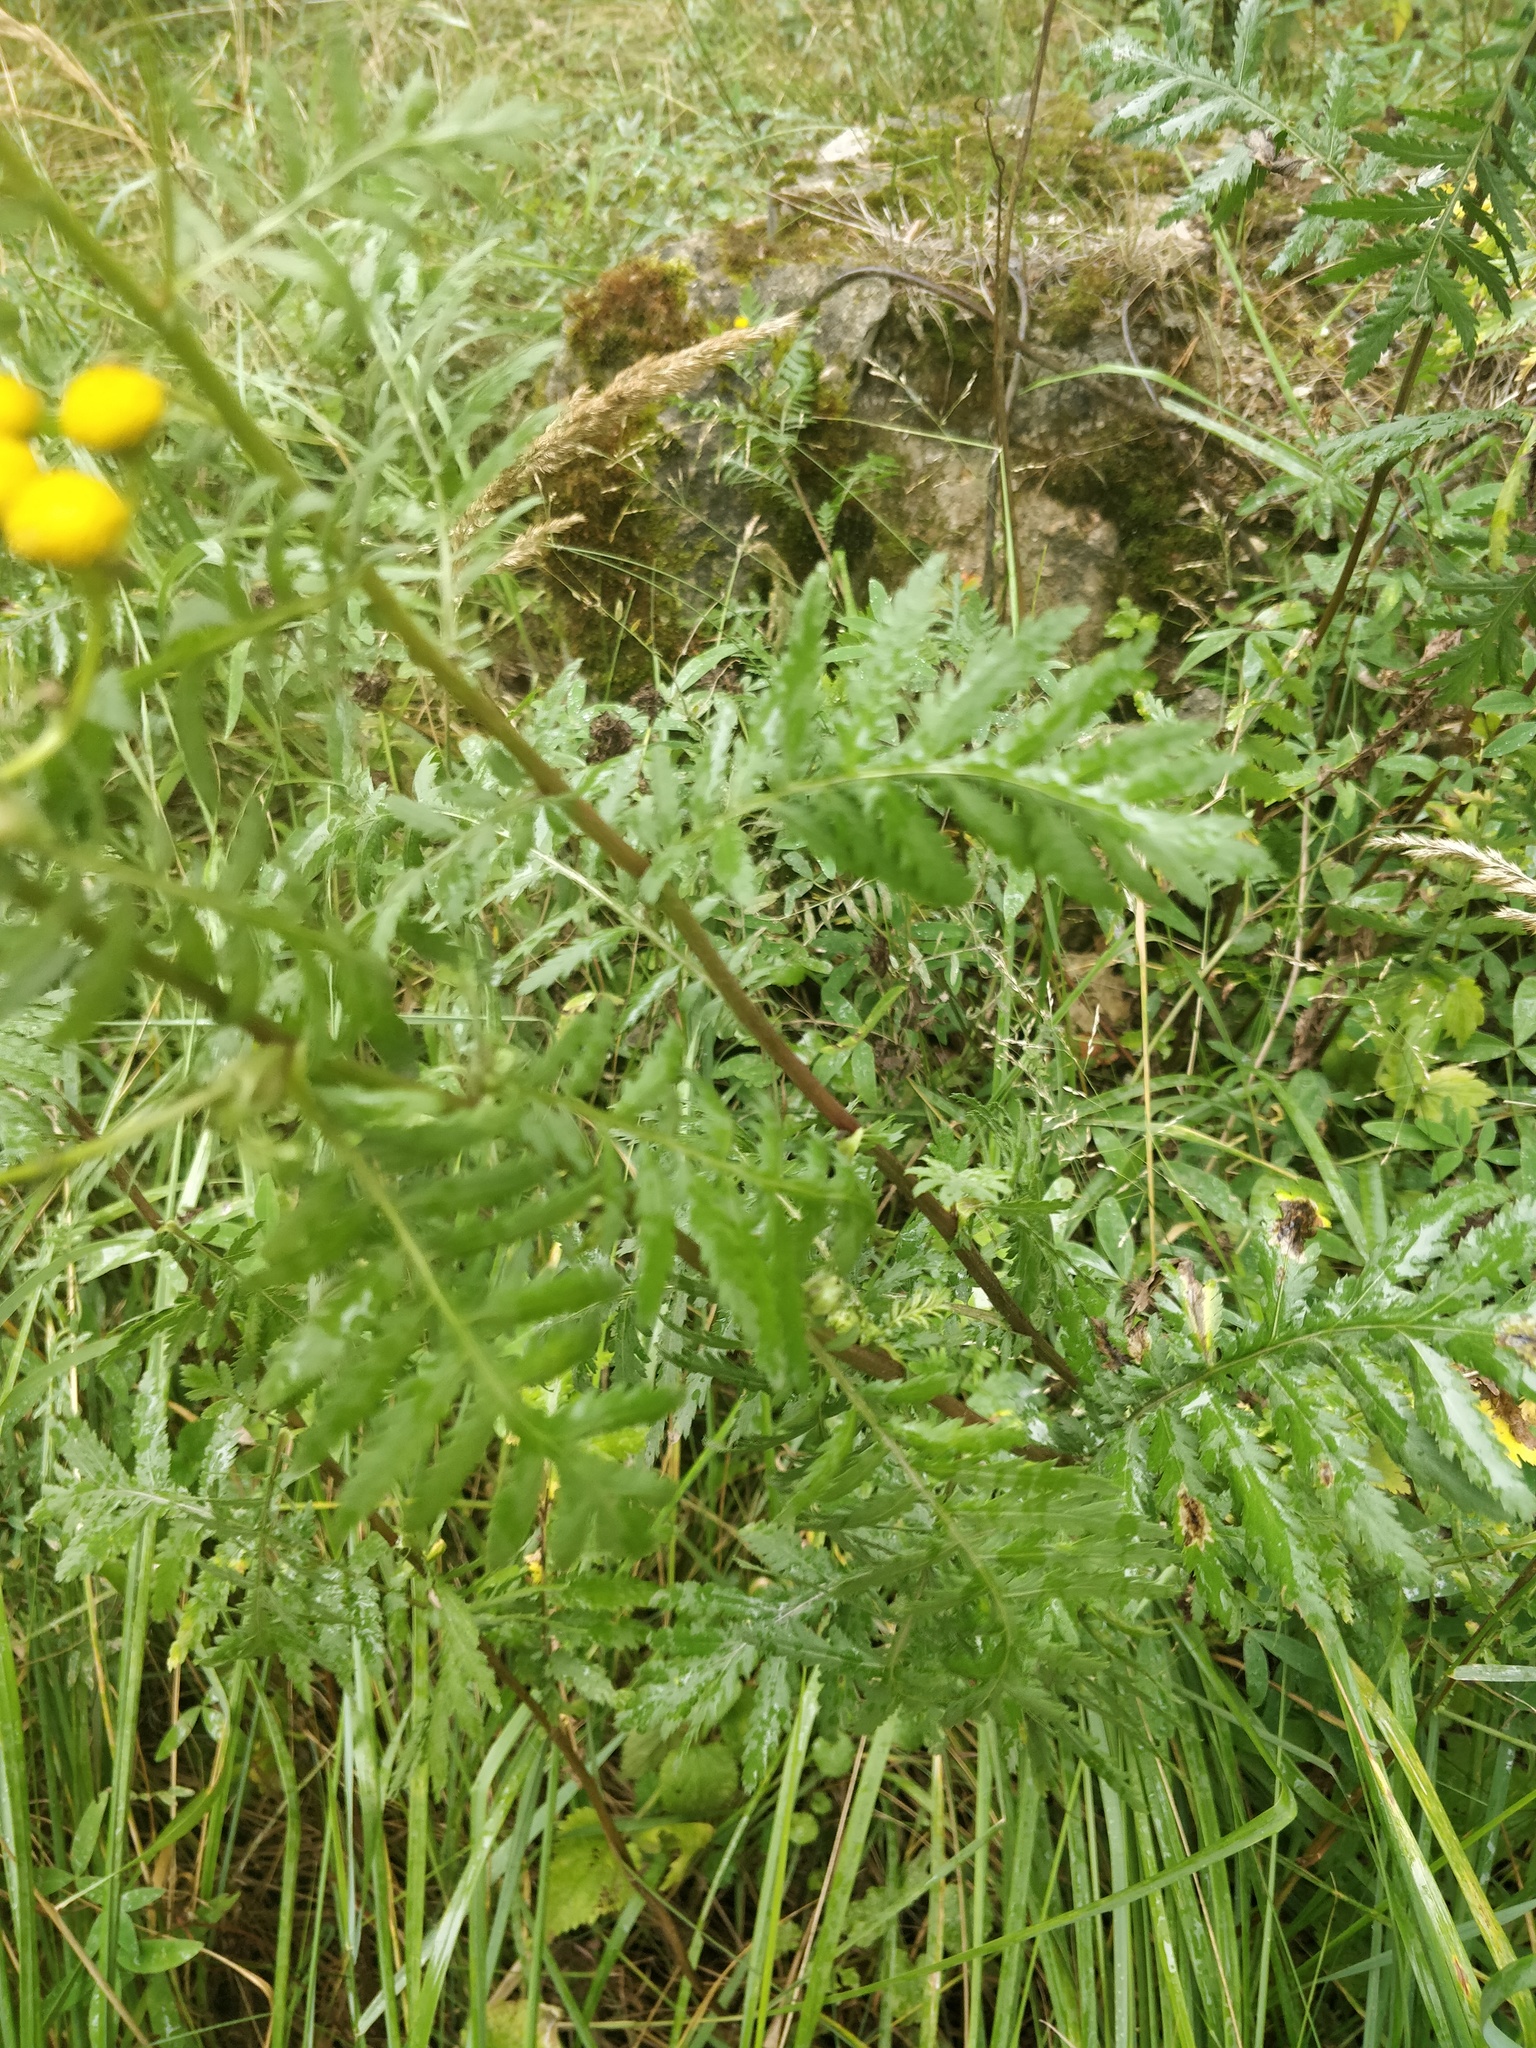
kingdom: Plantae
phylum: Tracheophyta
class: Magnoliopsida
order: Asterales
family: Asteraceae
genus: Tanacetum
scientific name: Tanacetum vulgare
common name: Common tansy
